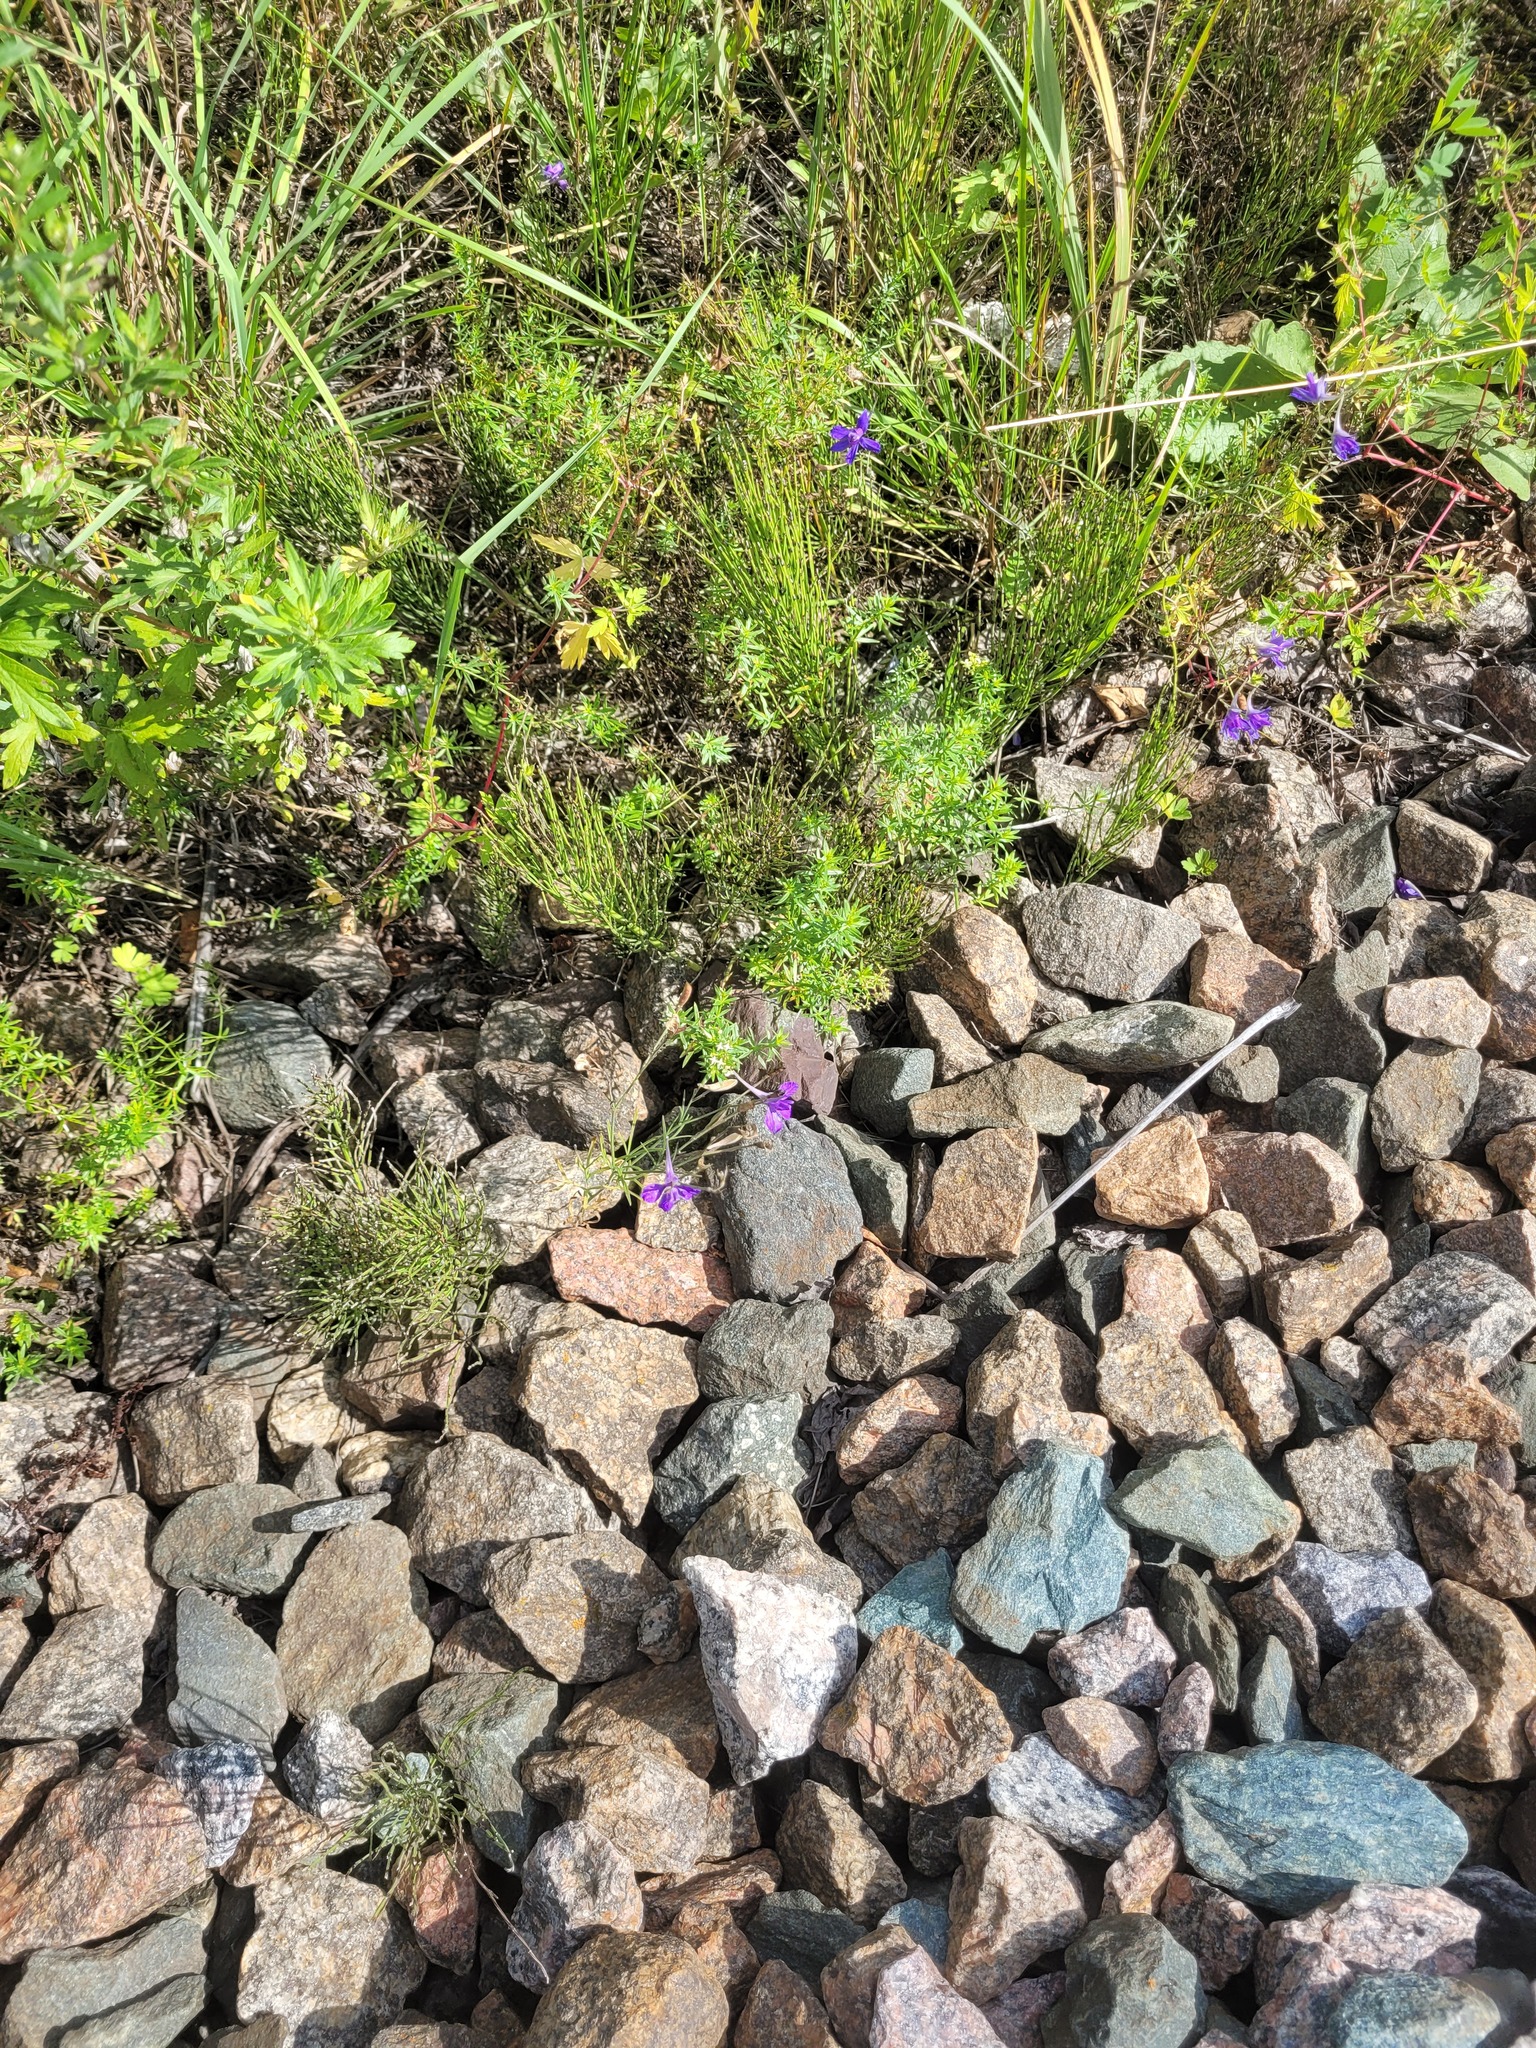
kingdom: Plantae
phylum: Tracheophyta
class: Magnoliopsida
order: Ranunculales
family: Ranunculaceae
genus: Delphinium
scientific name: Delphinium consolida
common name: Branching larkspur
